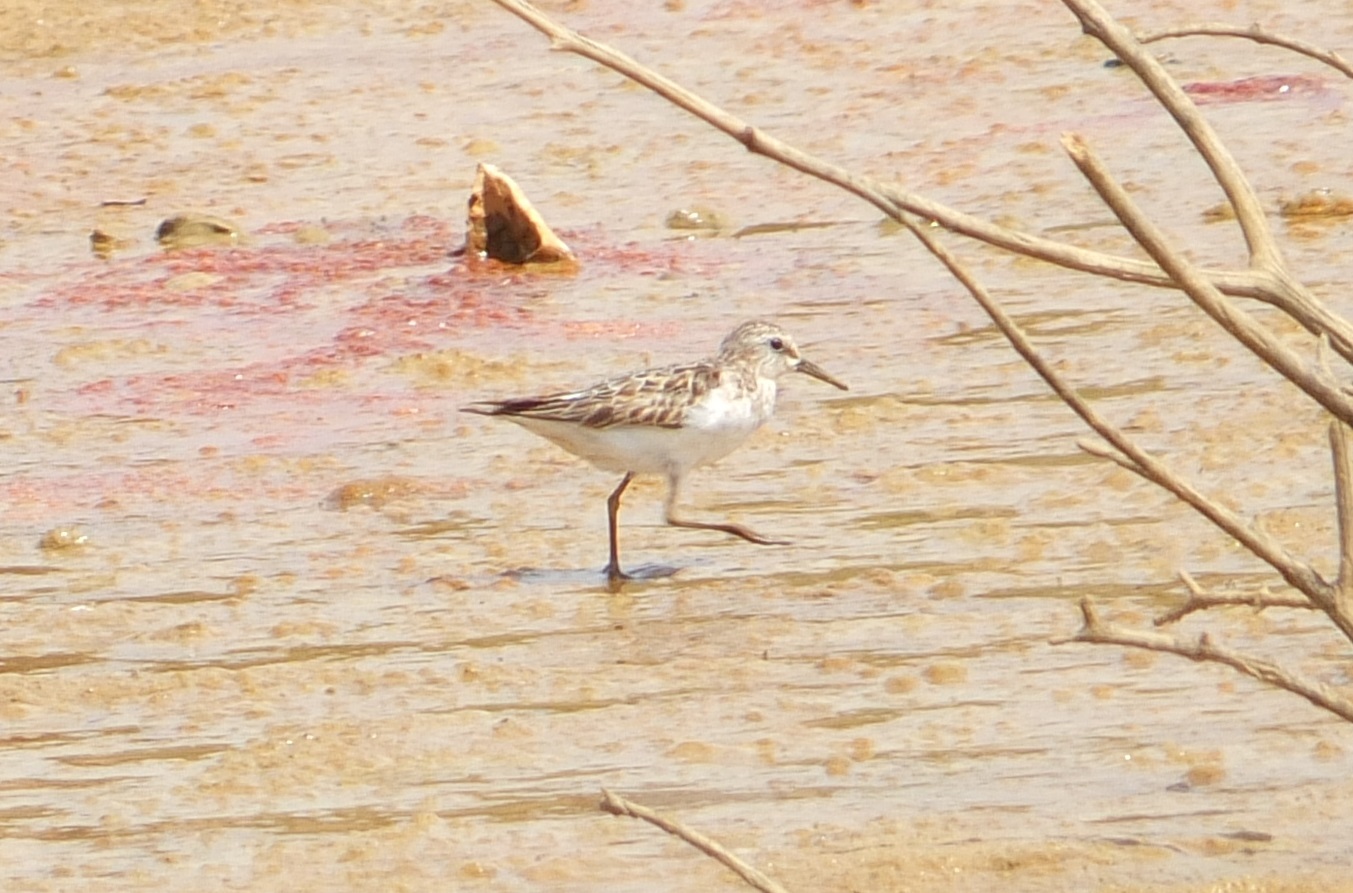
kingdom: Animalia
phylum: Chordata
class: Aves
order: Charadriiformes
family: Scolopacidae
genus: Calidris
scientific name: Calidris temminckii
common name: Temminck's stint
